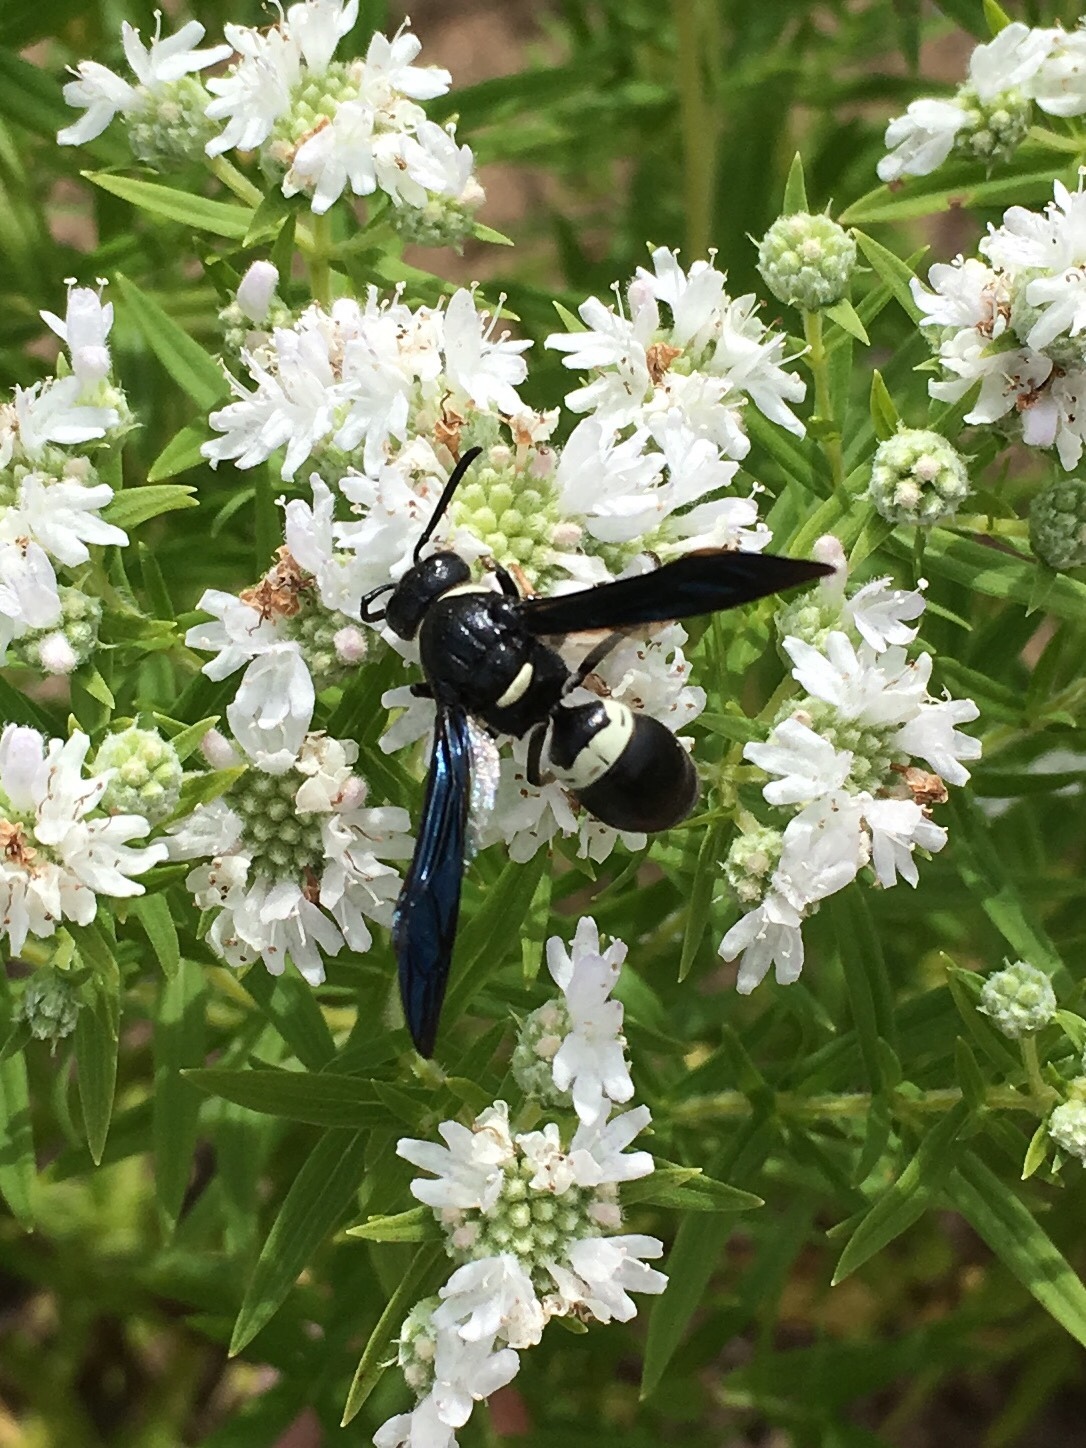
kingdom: Animalia
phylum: Arthropoda
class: Insecta
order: Hymenoptera
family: Eumenidae
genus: Monobia
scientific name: Monobia quadridens
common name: Four-toothed mason wasp
